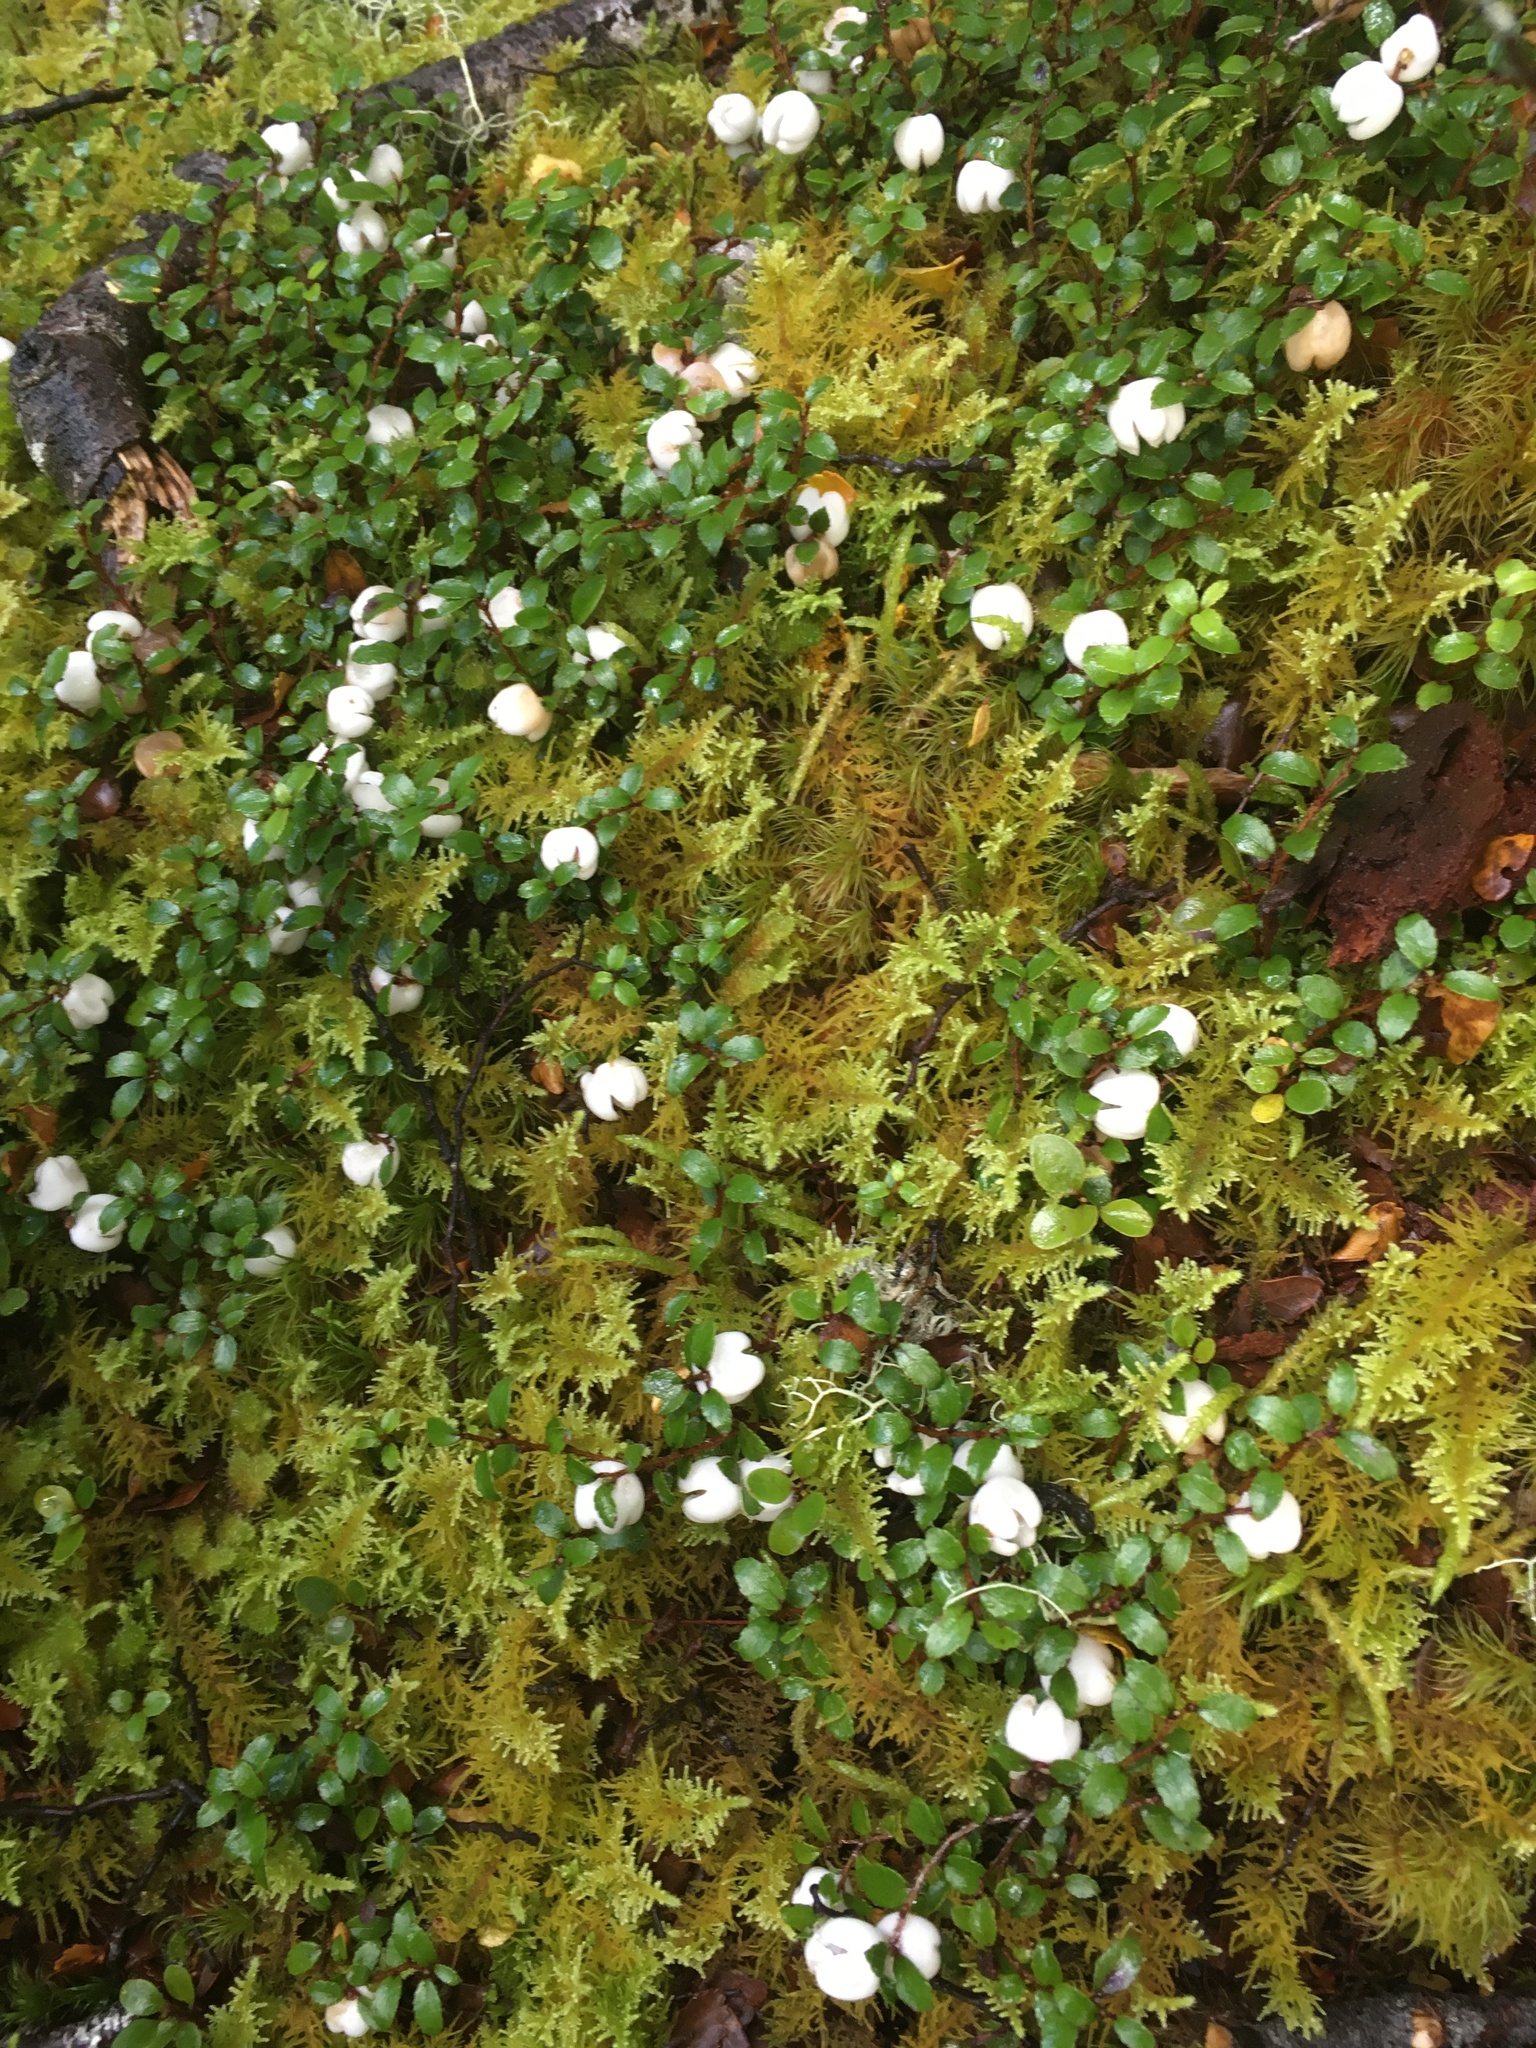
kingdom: Plantae
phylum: Tracheophyta
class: Magnoliopsida
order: Ericales
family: Ericaceae
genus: Gaultheria
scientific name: Gaultheria depressa
